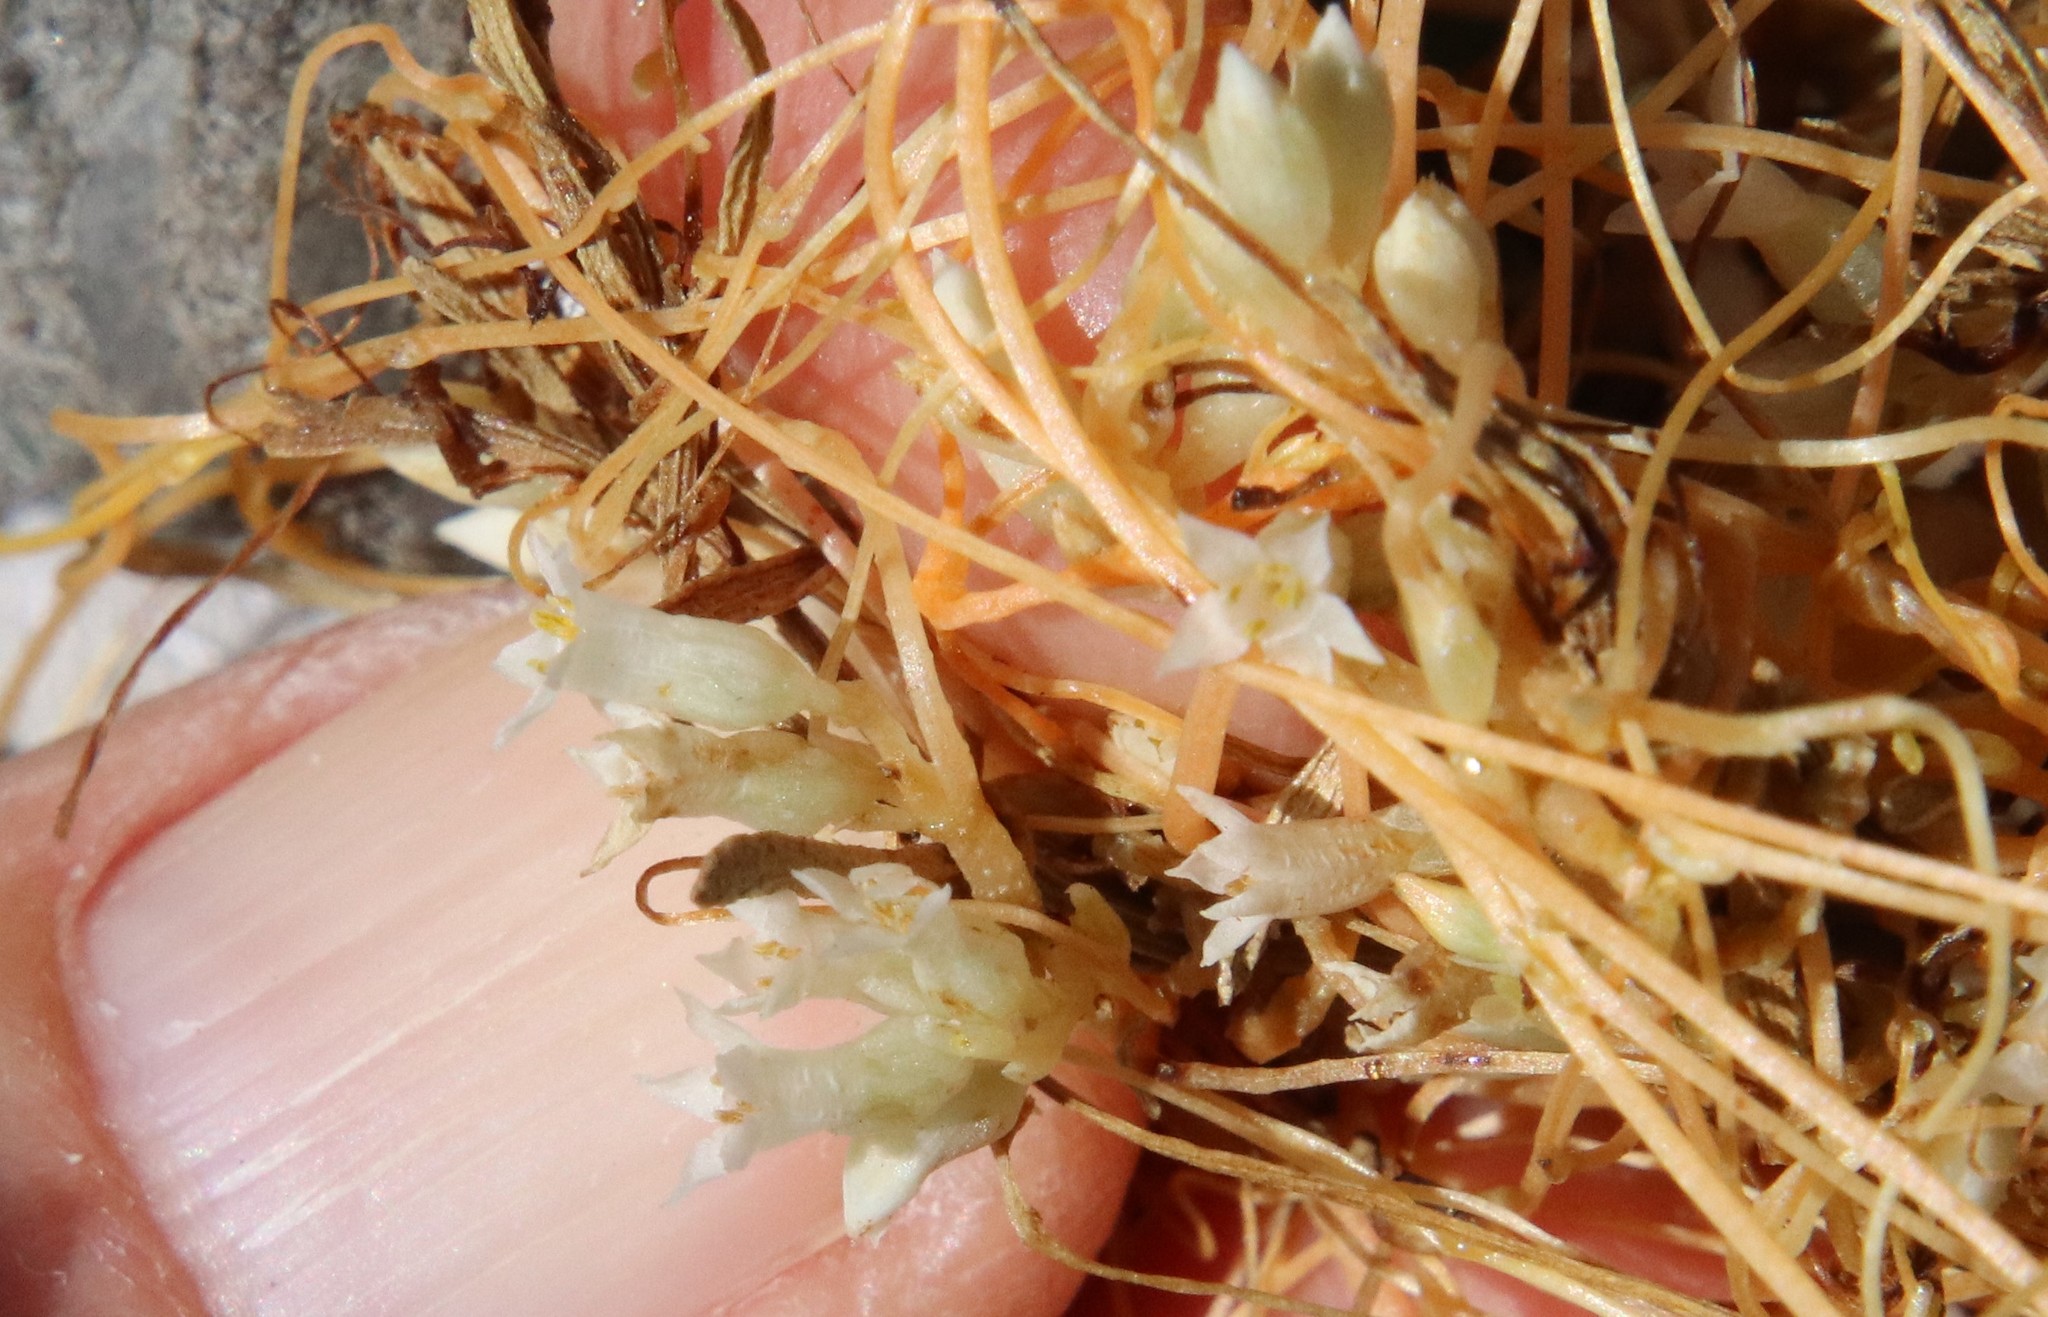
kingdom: Plantae
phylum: Tracheophyta
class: Magnoliopsida
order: Solanales
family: Convolvulaceae
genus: Cuscuta
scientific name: Cuscuta subinclusa
